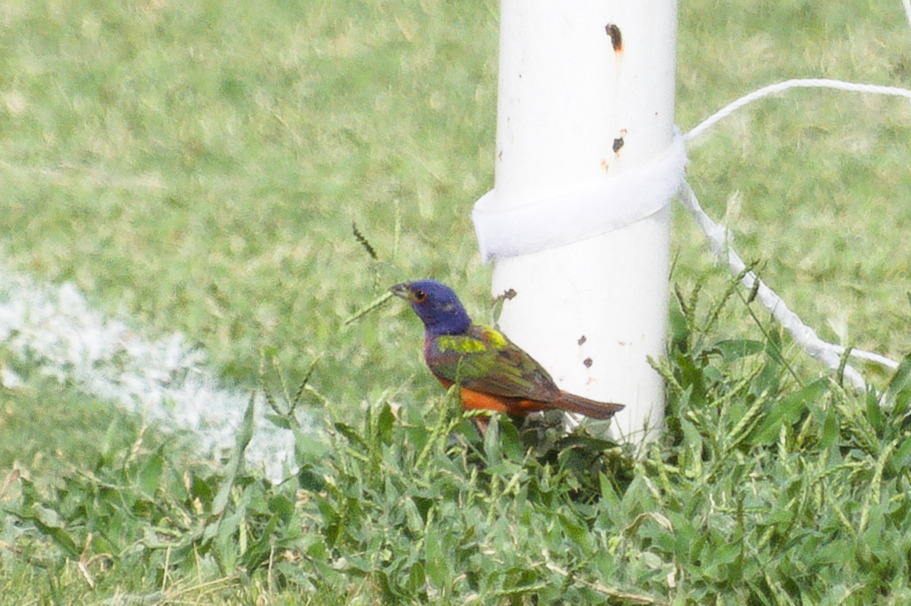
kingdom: Animalia
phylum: Chordata
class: Aves
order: Passeriformes
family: Cardinalidae
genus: Passerina
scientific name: Passerina ciris
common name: Painted bunting
